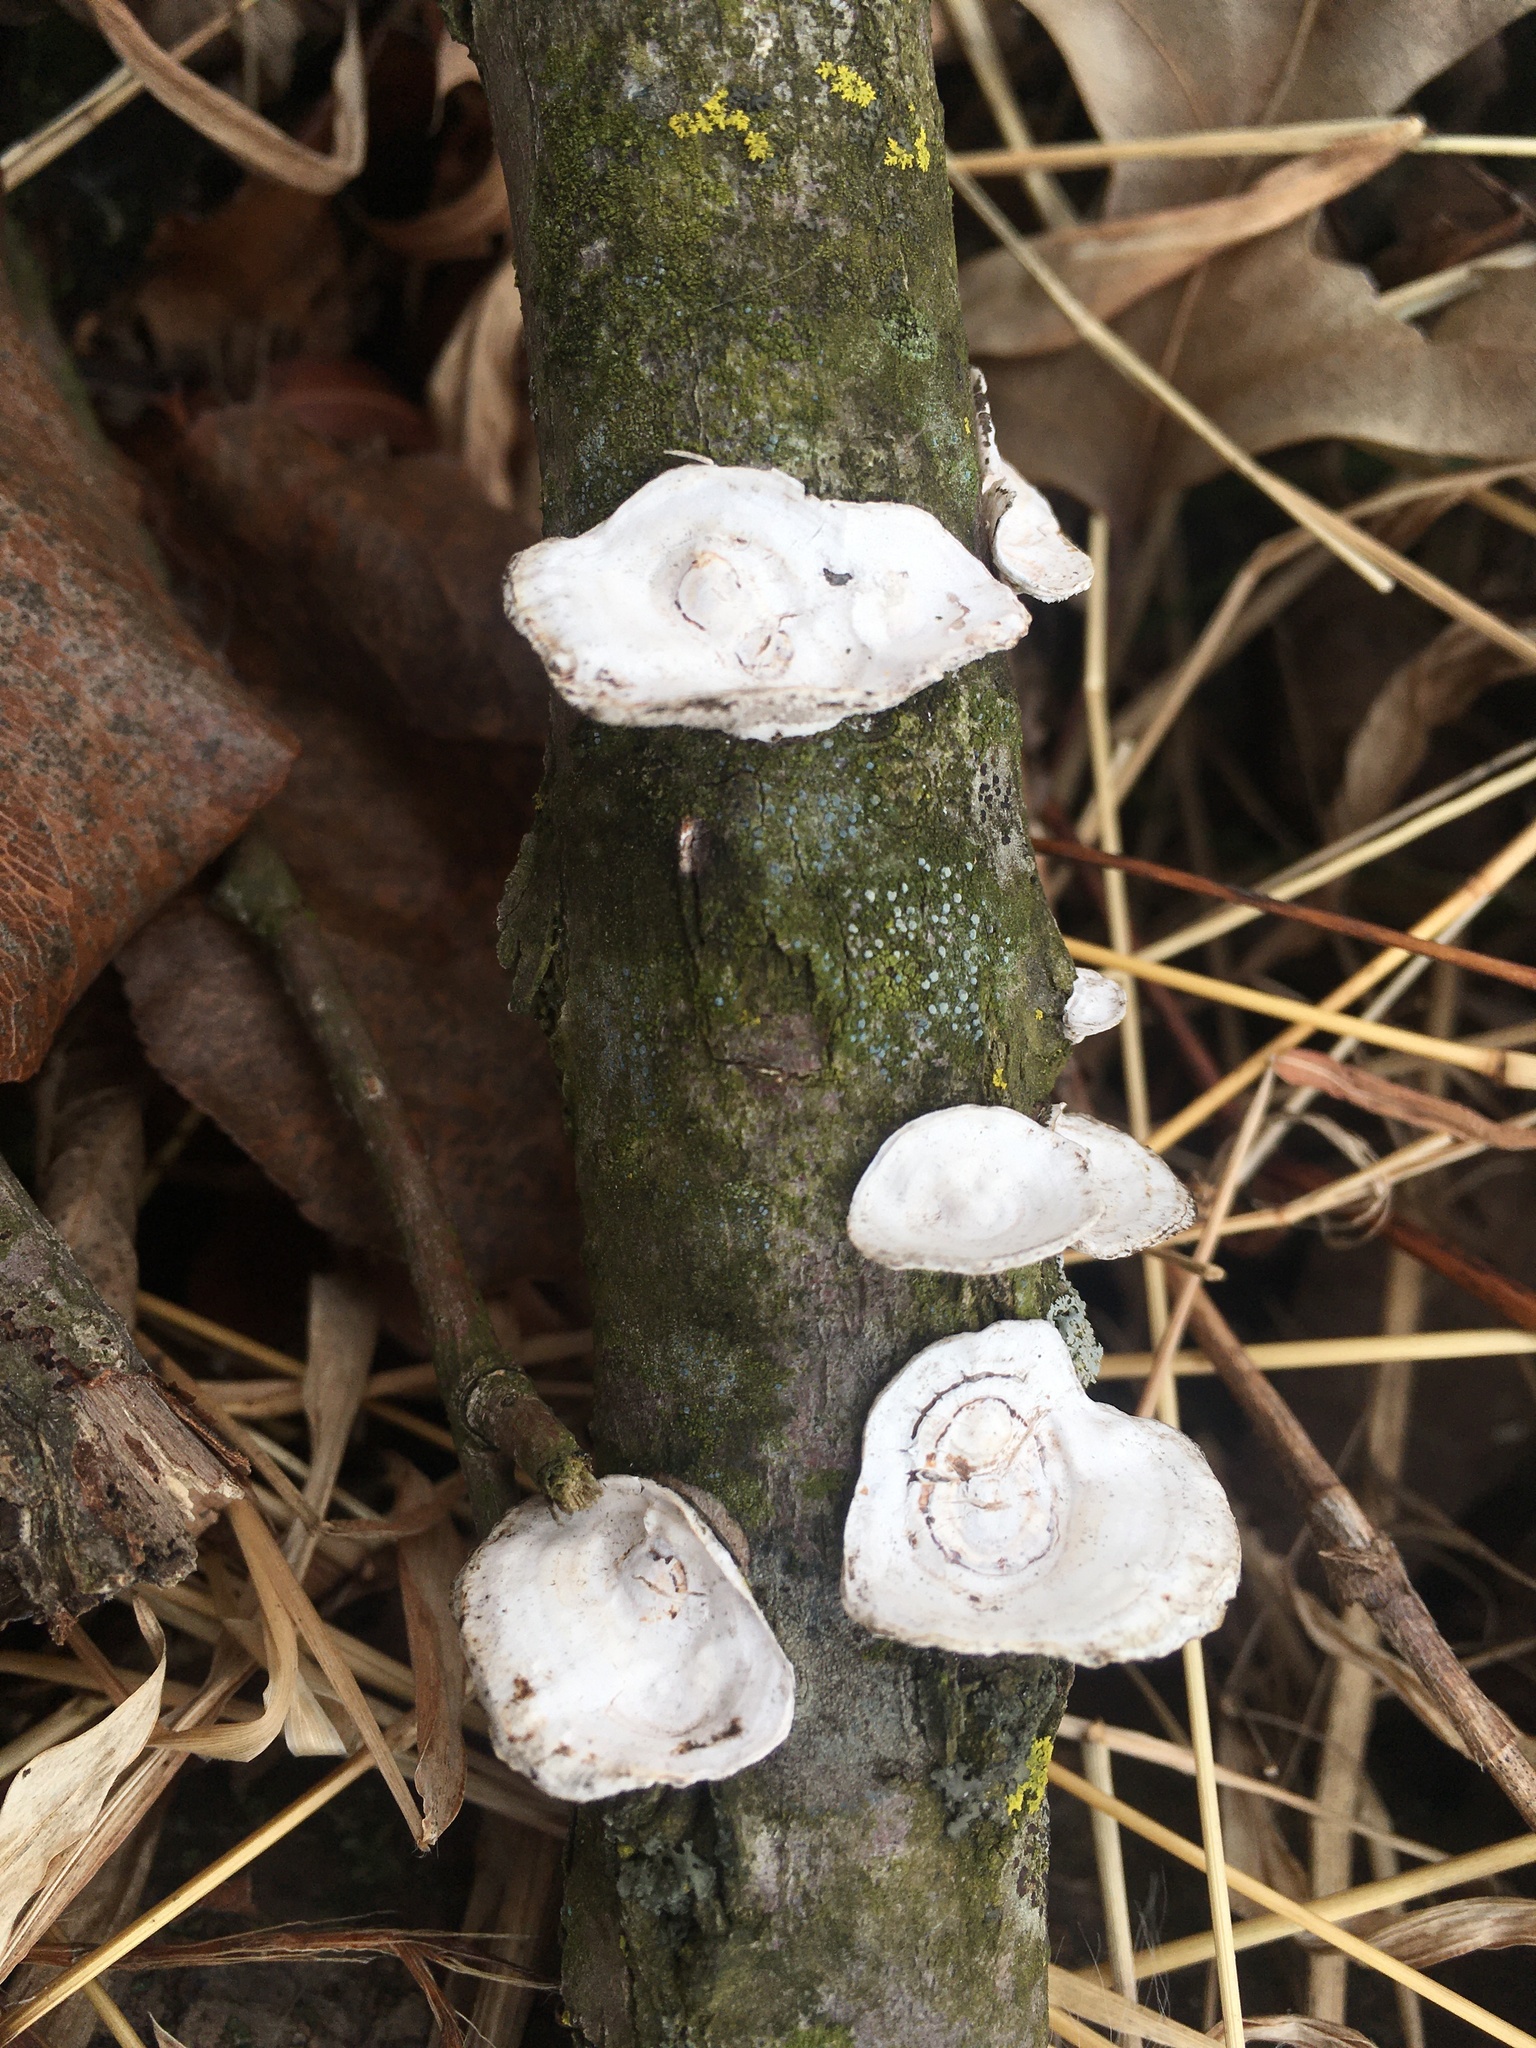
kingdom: Fungi
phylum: Basidiomycota
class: Agaricomycetes
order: Polyporales
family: Polyporaceae
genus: Poronidulus
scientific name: Poronidulus conchifer
